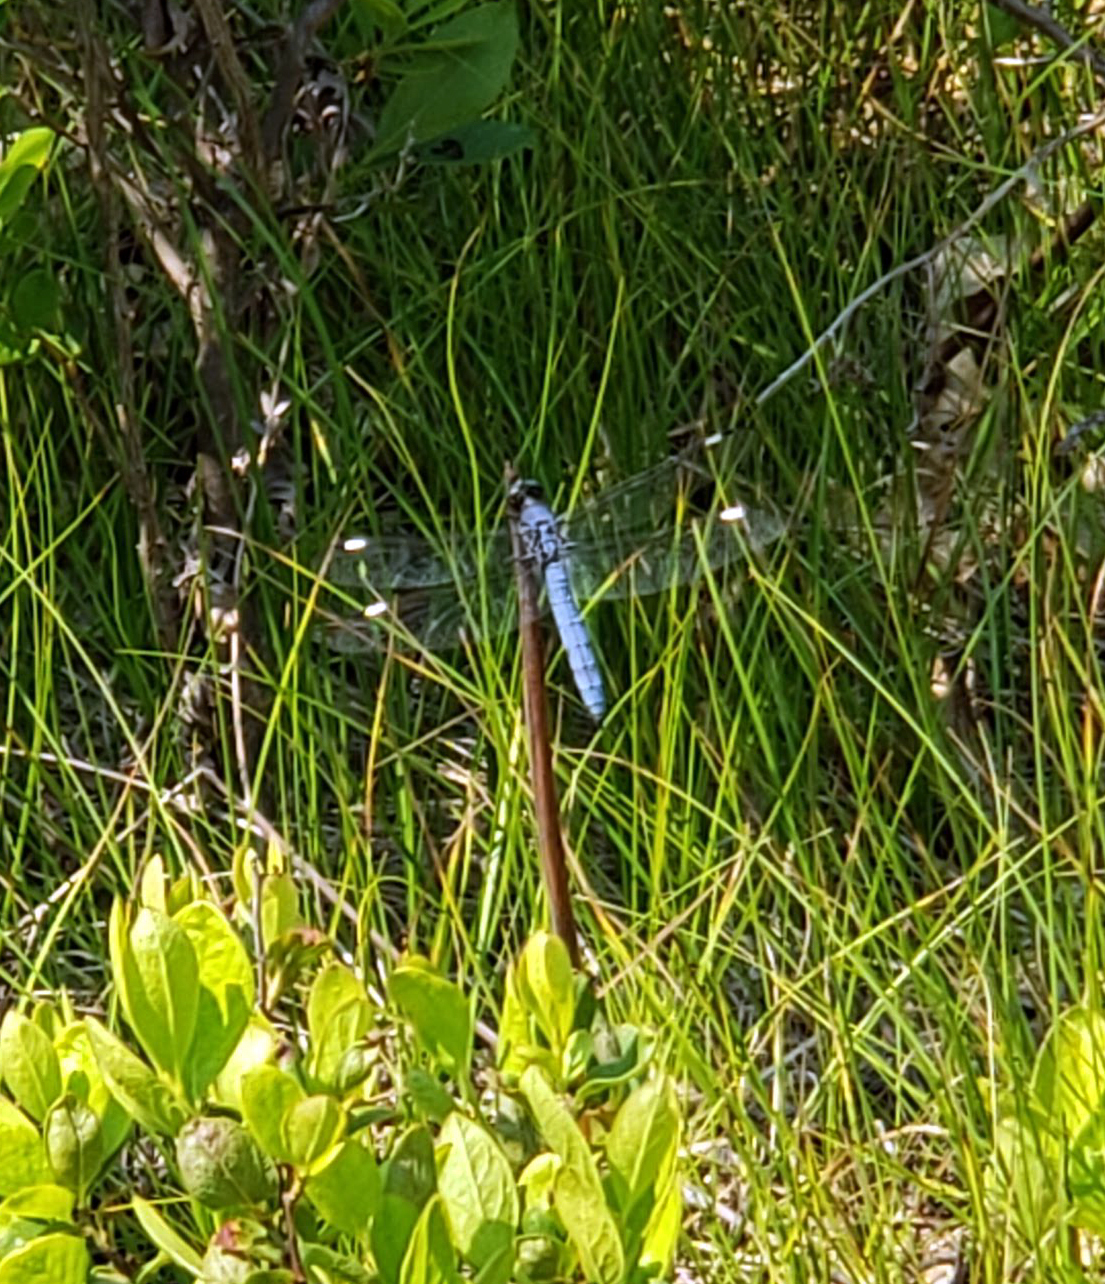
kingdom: Animalia
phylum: Arthropoda
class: Insecta
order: Odonata
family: Libellulidae
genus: Libellula
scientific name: Libellula cyanea
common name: Spangled skimmer
